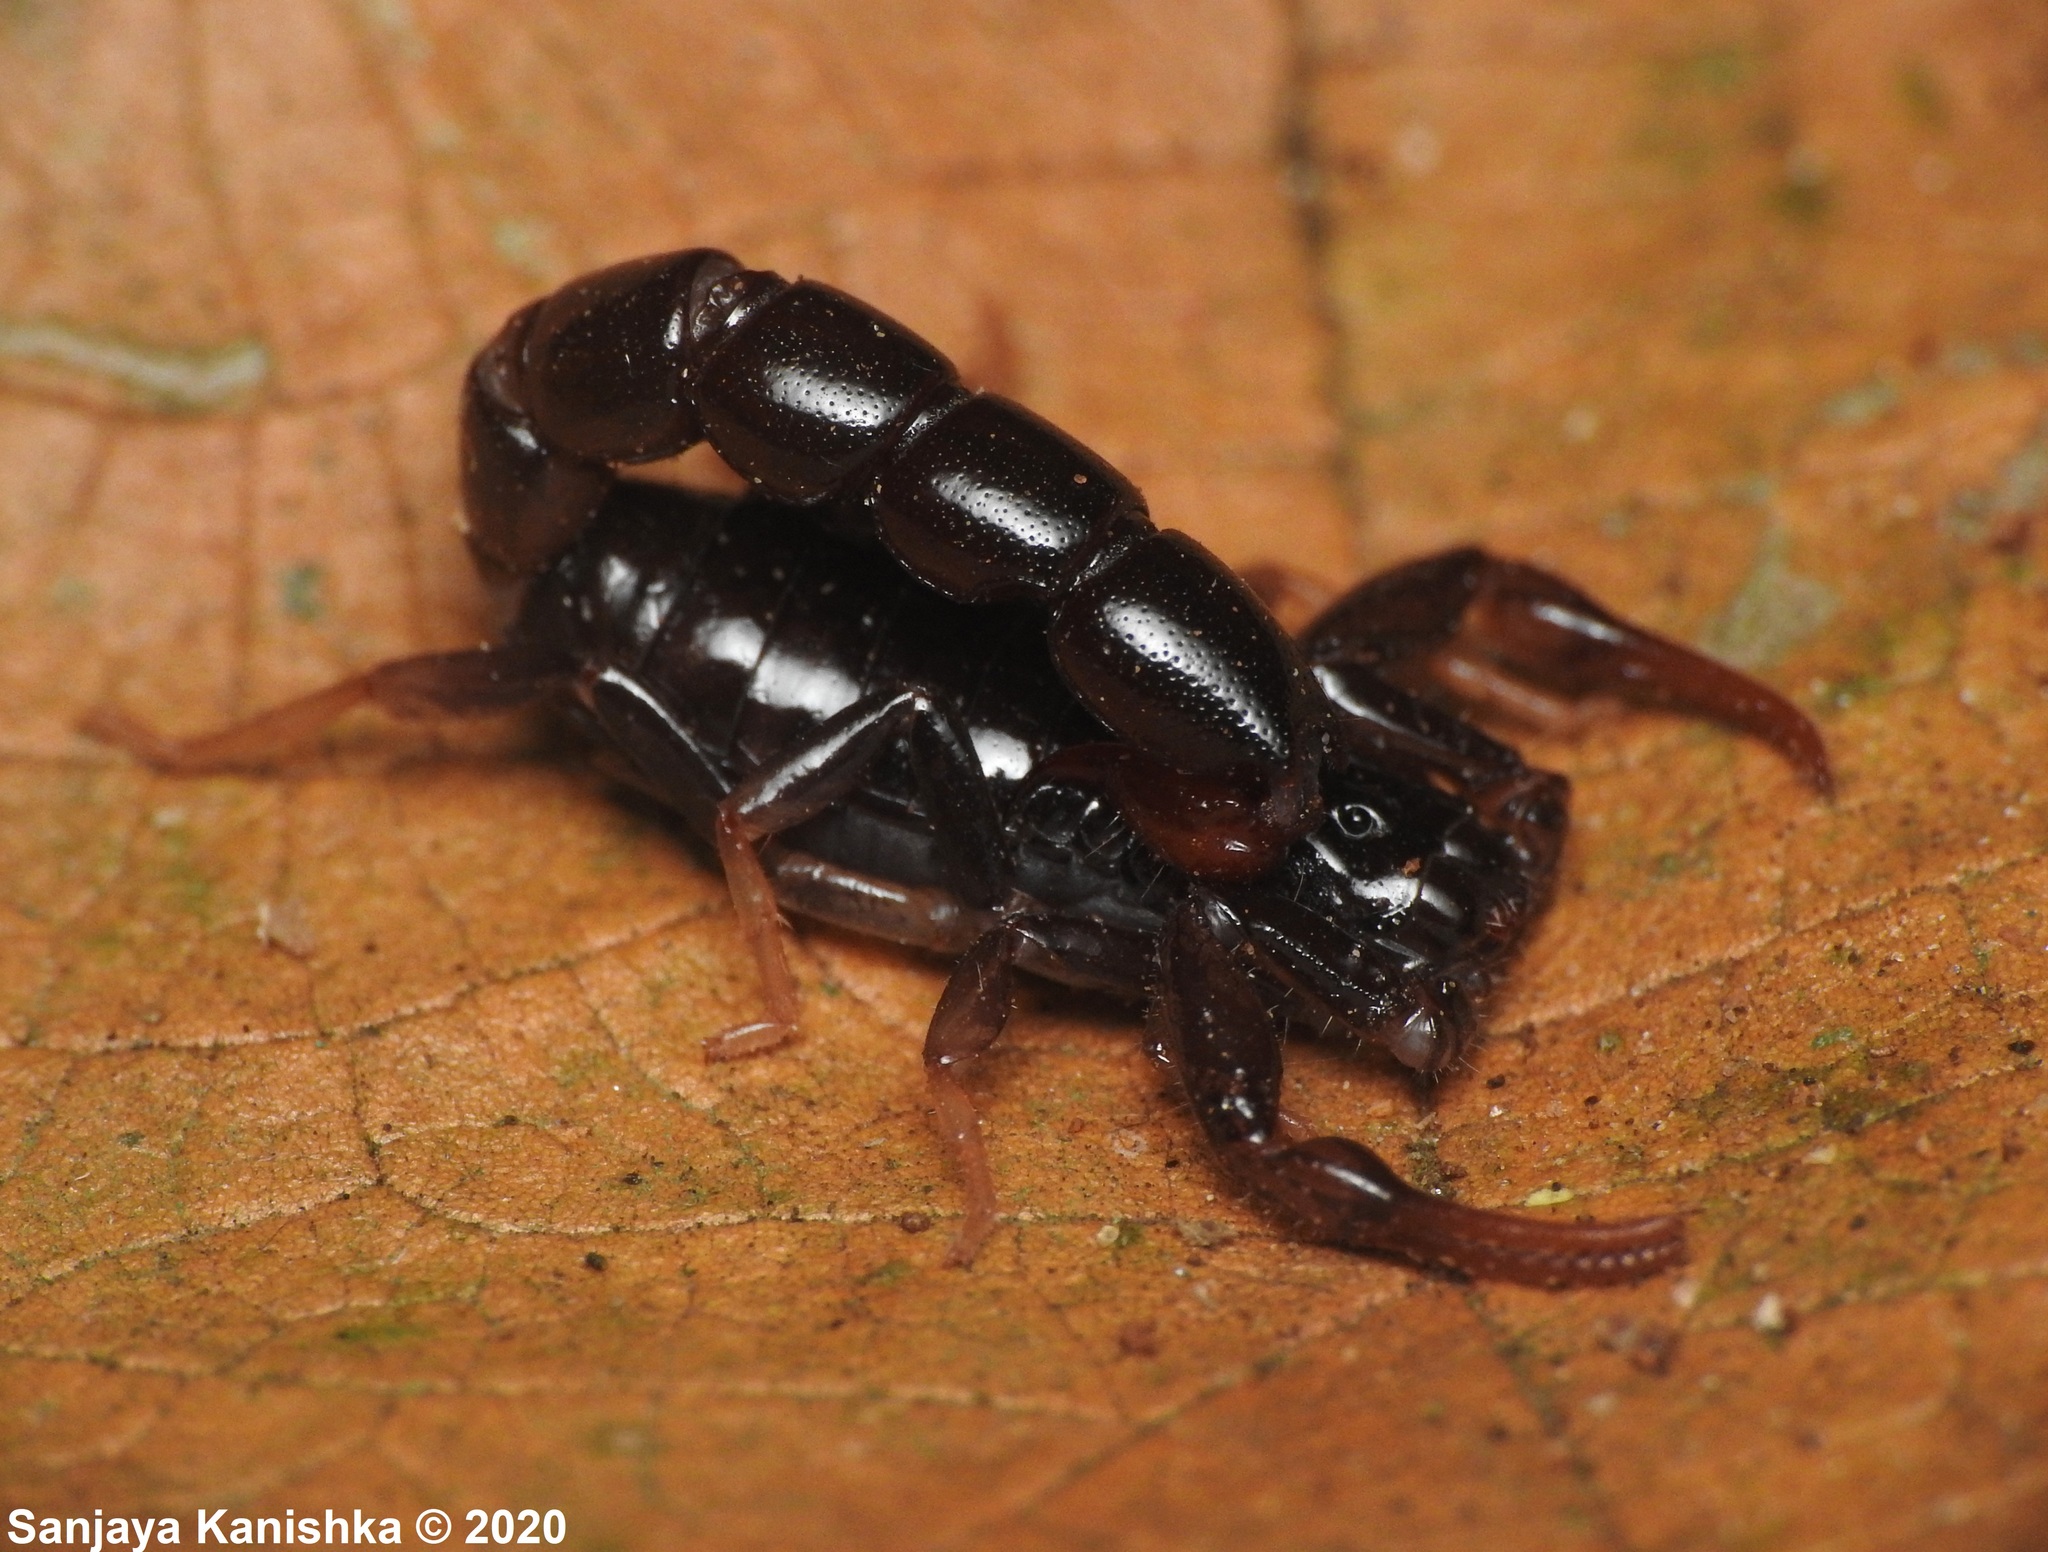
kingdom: Animalia
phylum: Arthropoda
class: Arachnida
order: Scorpiones
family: Buthidae
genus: Buthoscorpio
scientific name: Buthoscorpio sarasinorum
